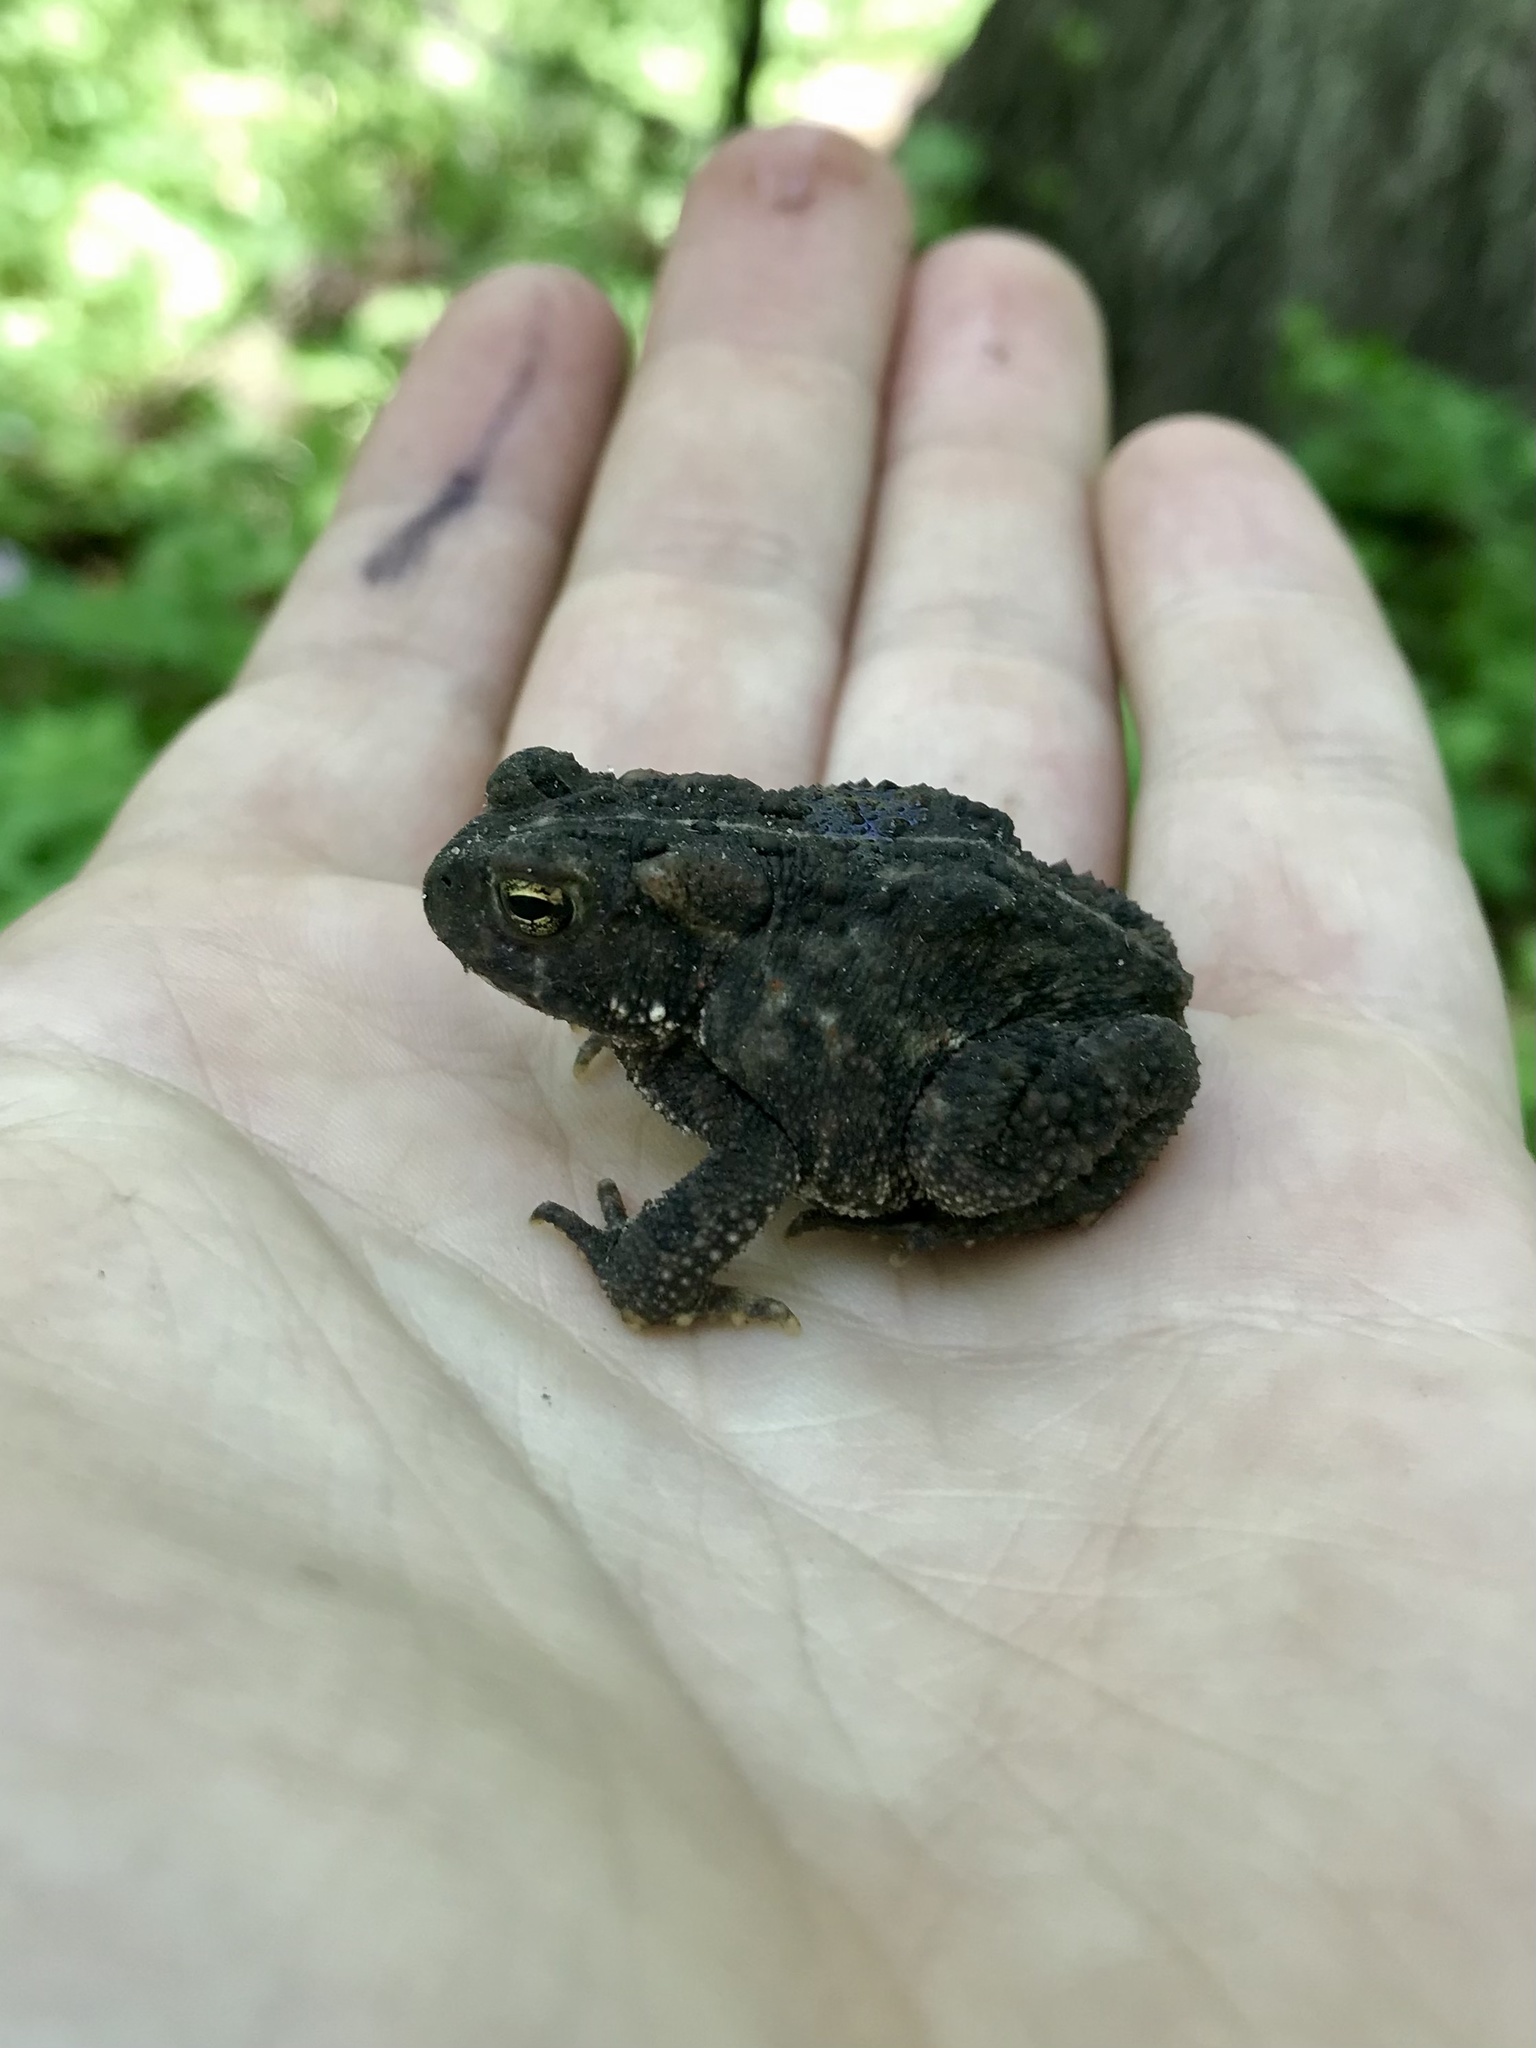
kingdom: Animalia
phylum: Chordata
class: Amphibia
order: Anura
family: Bufonidae
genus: Anaxyrus
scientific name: Anaxyrus americanus
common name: American toad
